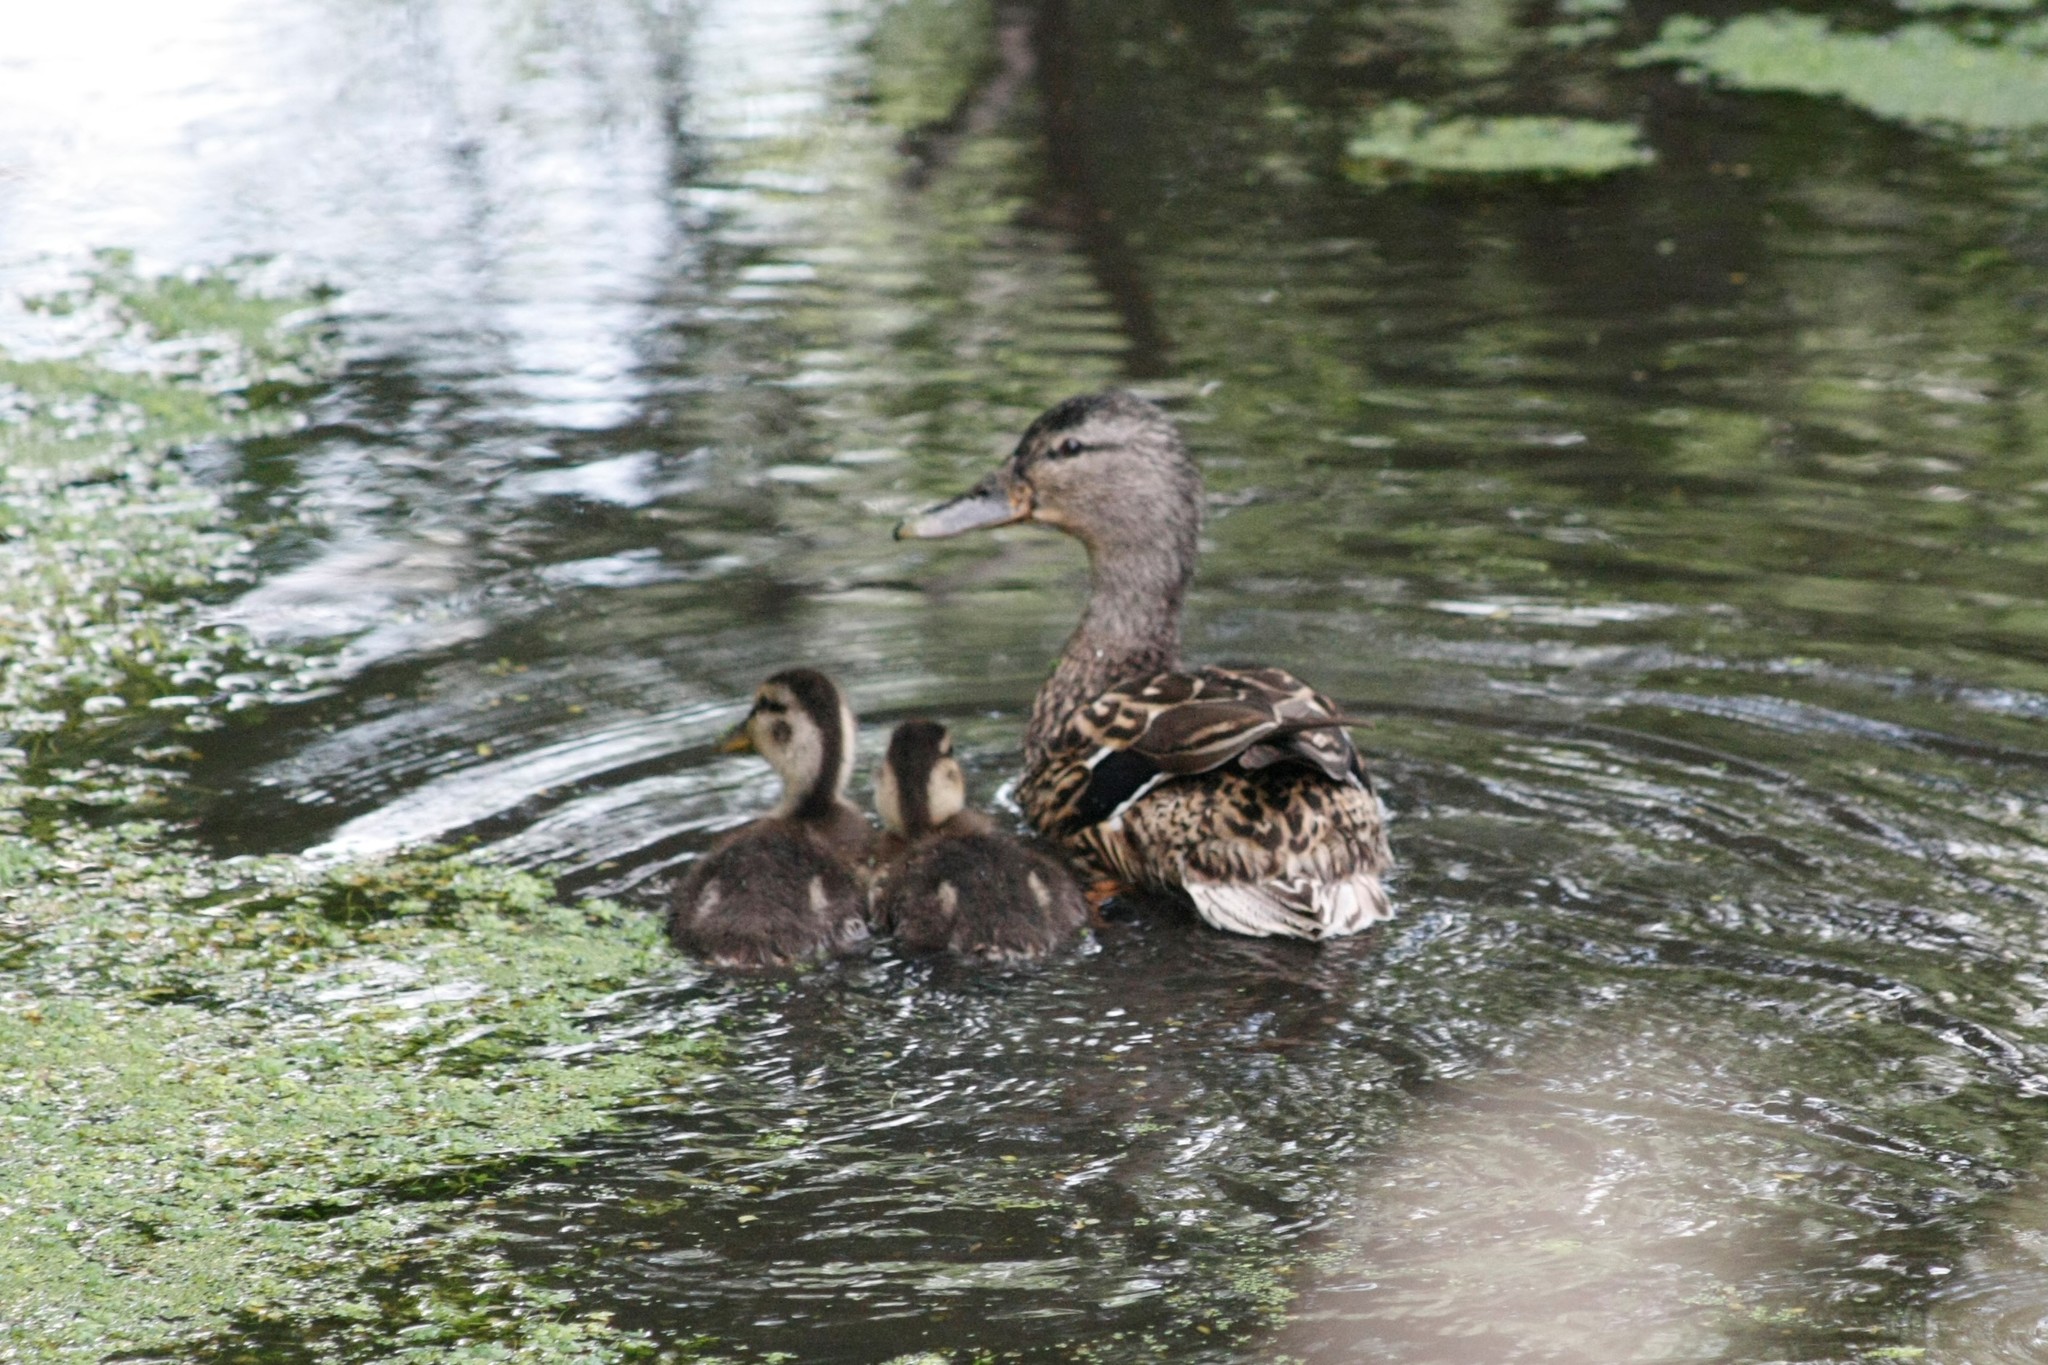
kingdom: Animalia
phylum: Chordata
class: Aves
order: Anseriformes
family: Anatidae
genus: Anas
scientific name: Anas platyrhynchos
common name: Mallard
